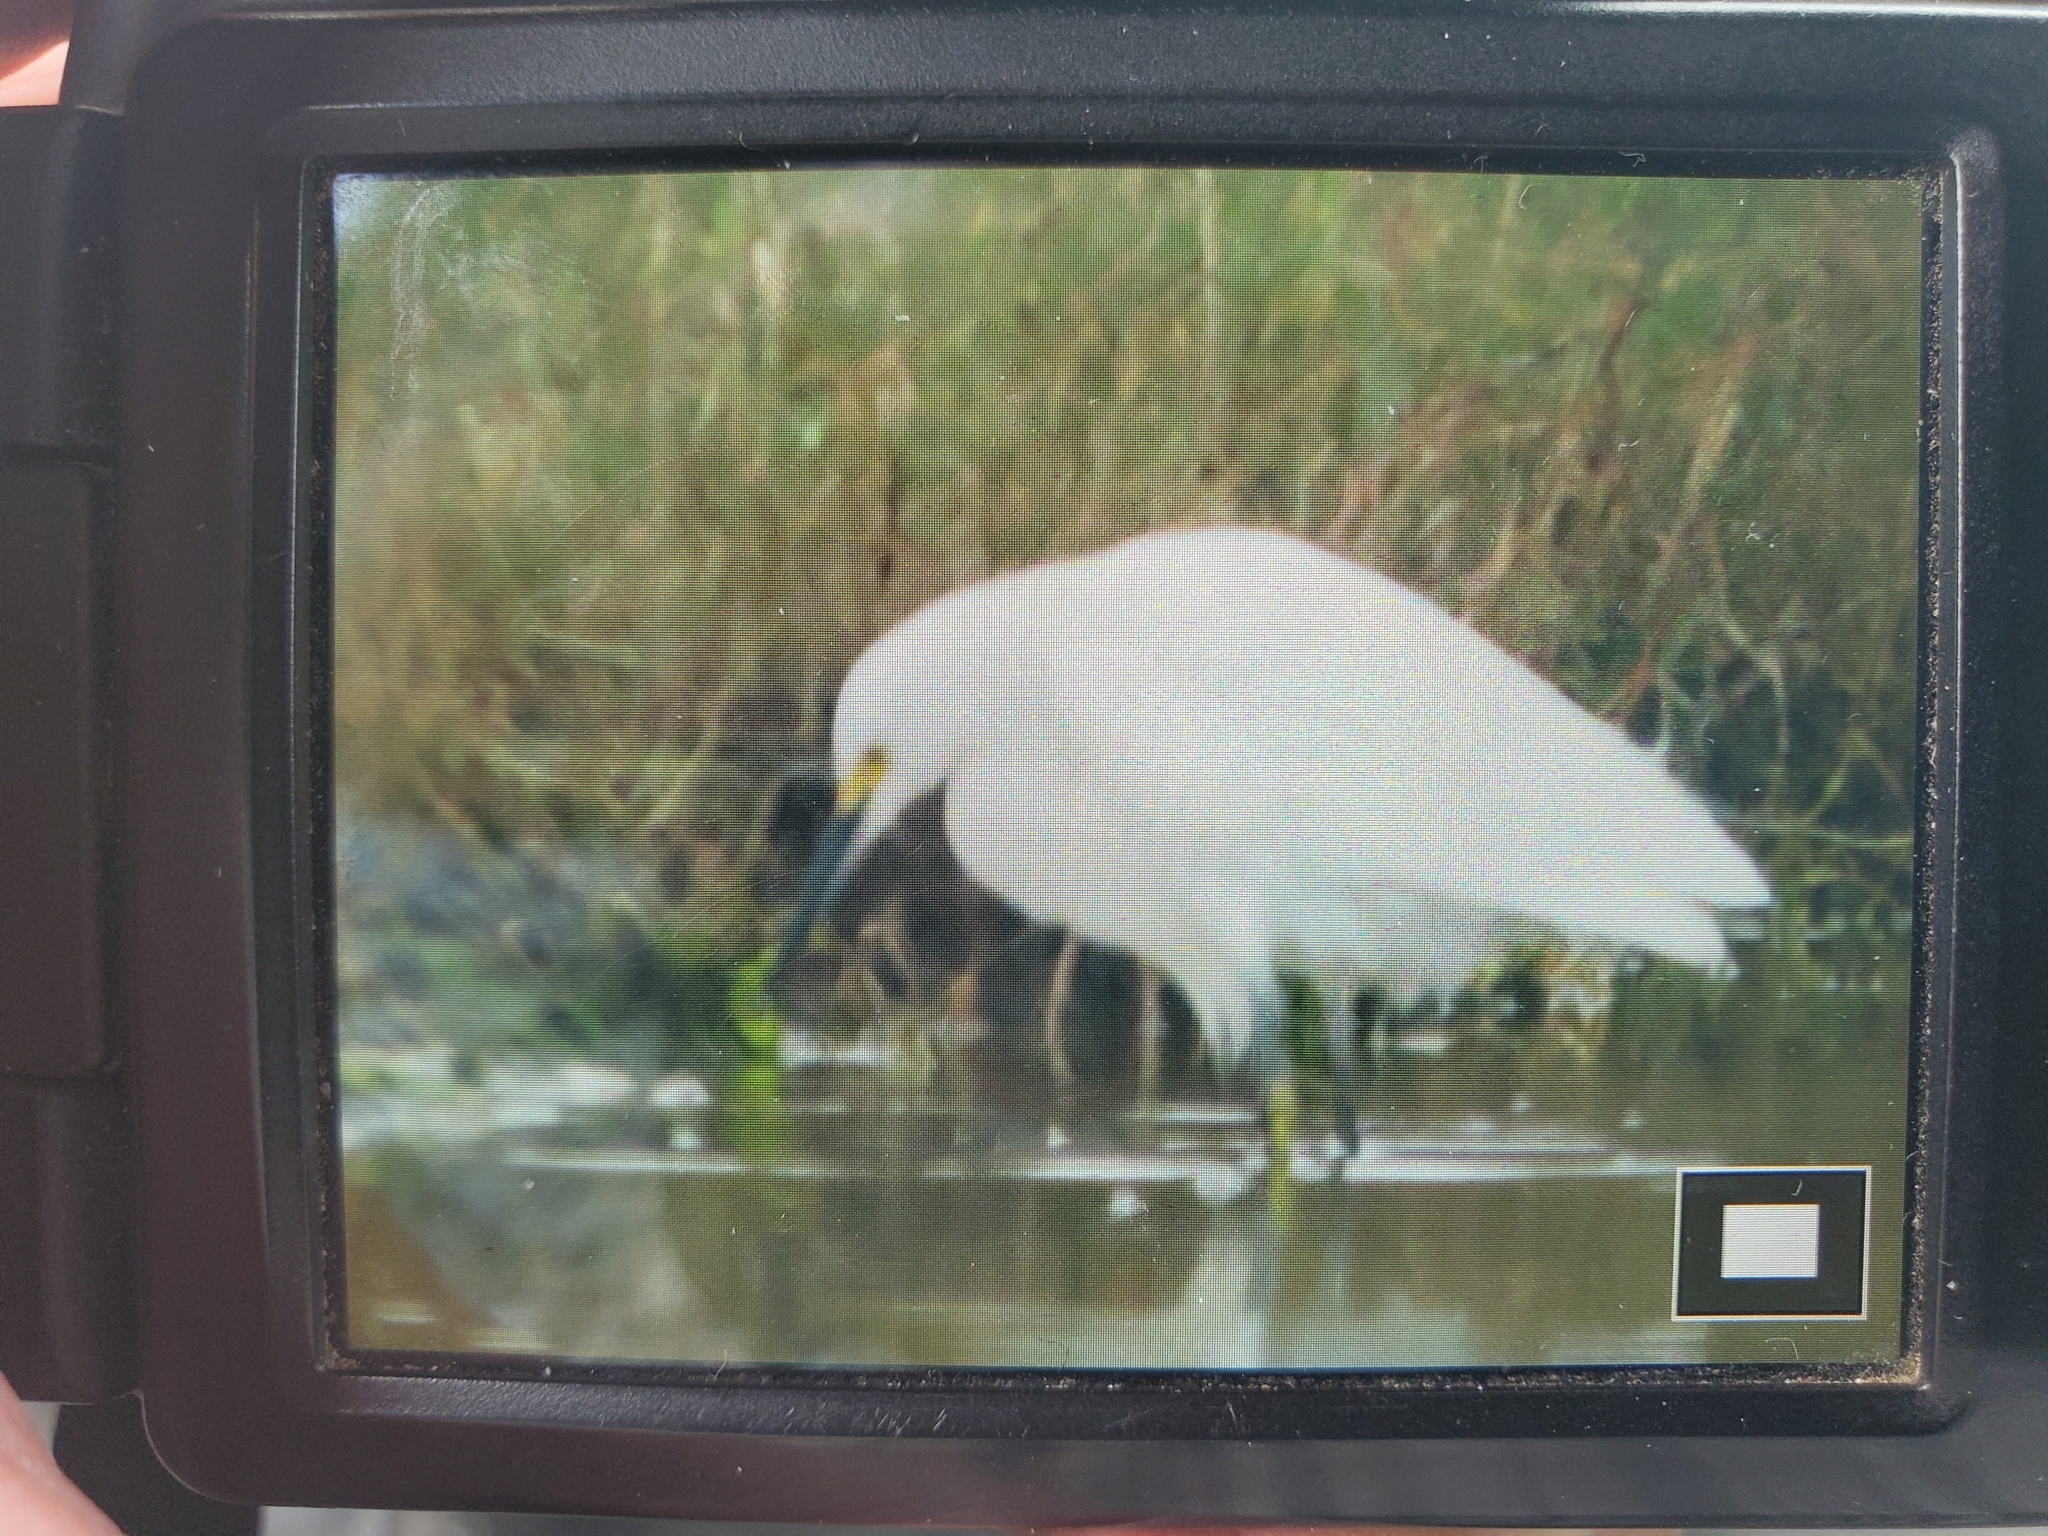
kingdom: Animalia
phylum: Chordata
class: Aves
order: Pelecaniformes
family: Ardeidae
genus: Egretta
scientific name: Egretta thula
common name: Snowy egret
